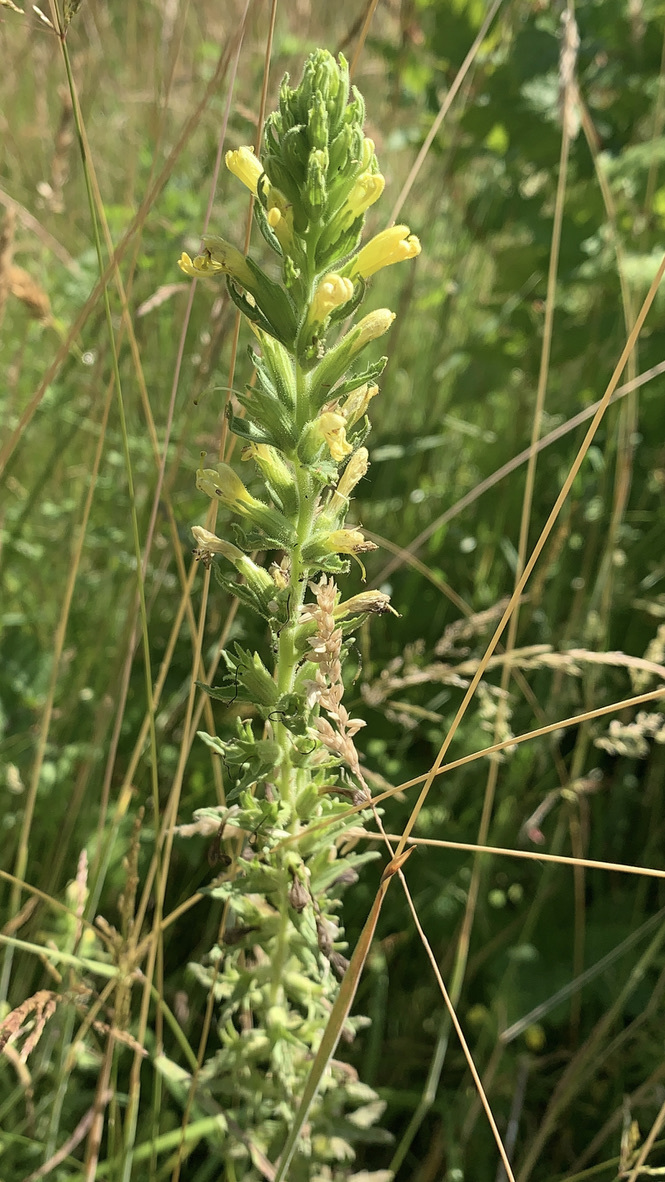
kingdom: Plantae
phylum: Tracheophyta
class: Magnoliopsida
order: Lamiales
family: Orobanchaceae
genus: Bellardia
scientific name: Bellardia viscosa
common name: Sticky parentucellia
